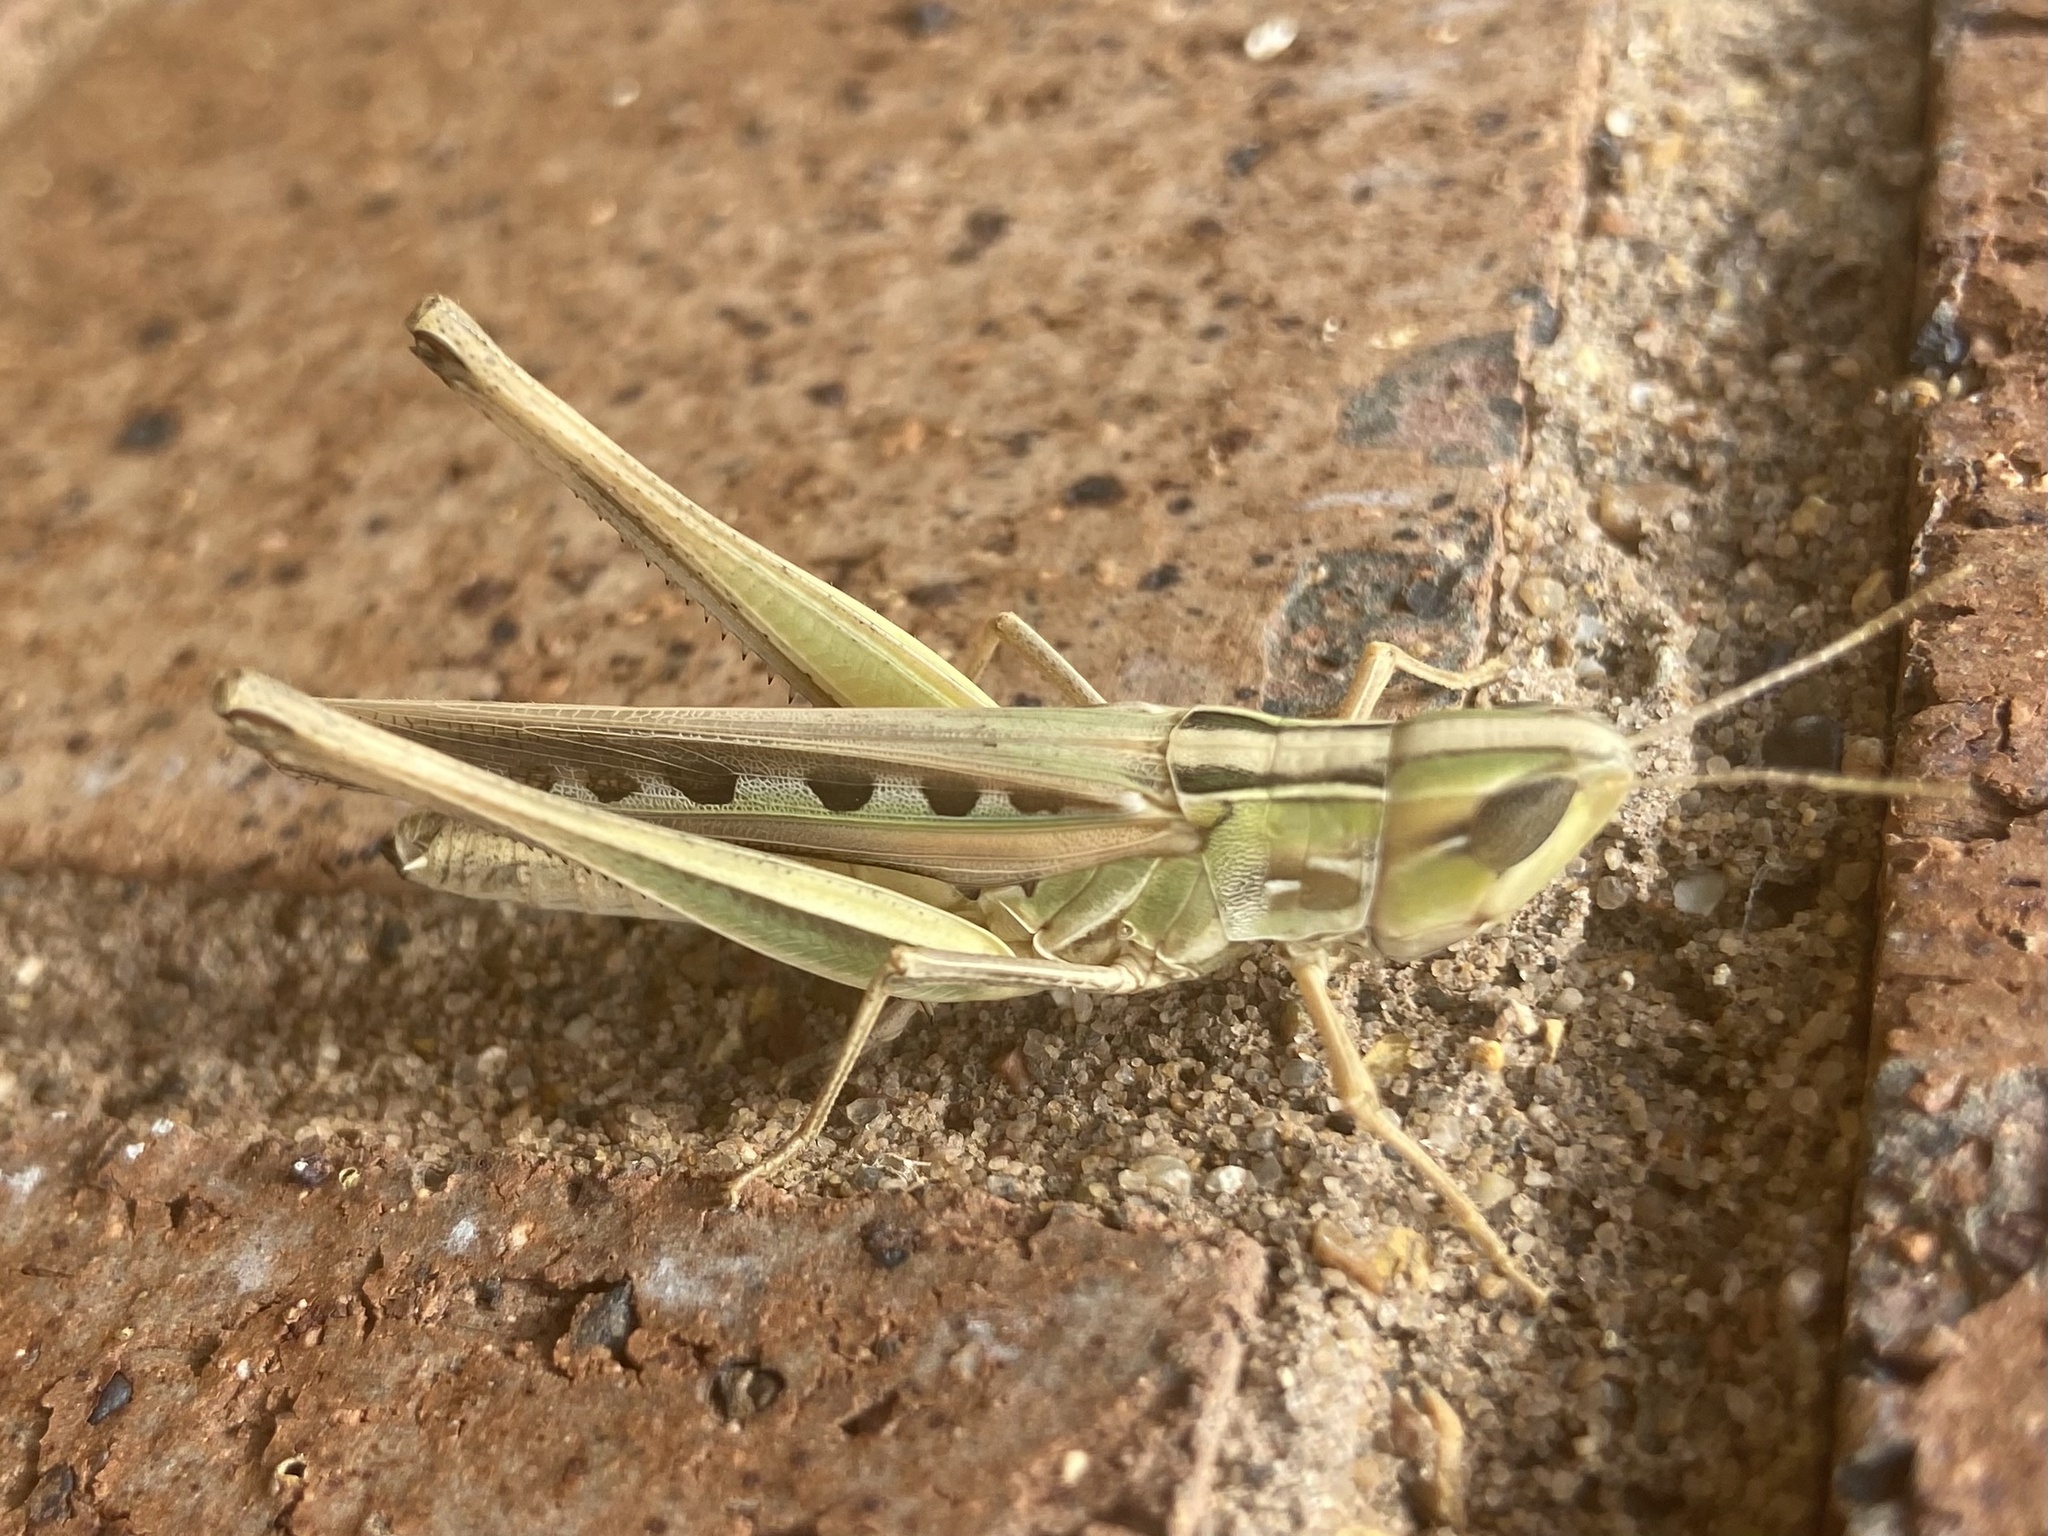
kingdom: Animalia
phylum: Arthropoda
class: Insecta
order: Orthoptera
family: Acrididae
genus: Syrbula
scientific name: Syrbula admirabilis
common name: Handsome grasshopper
